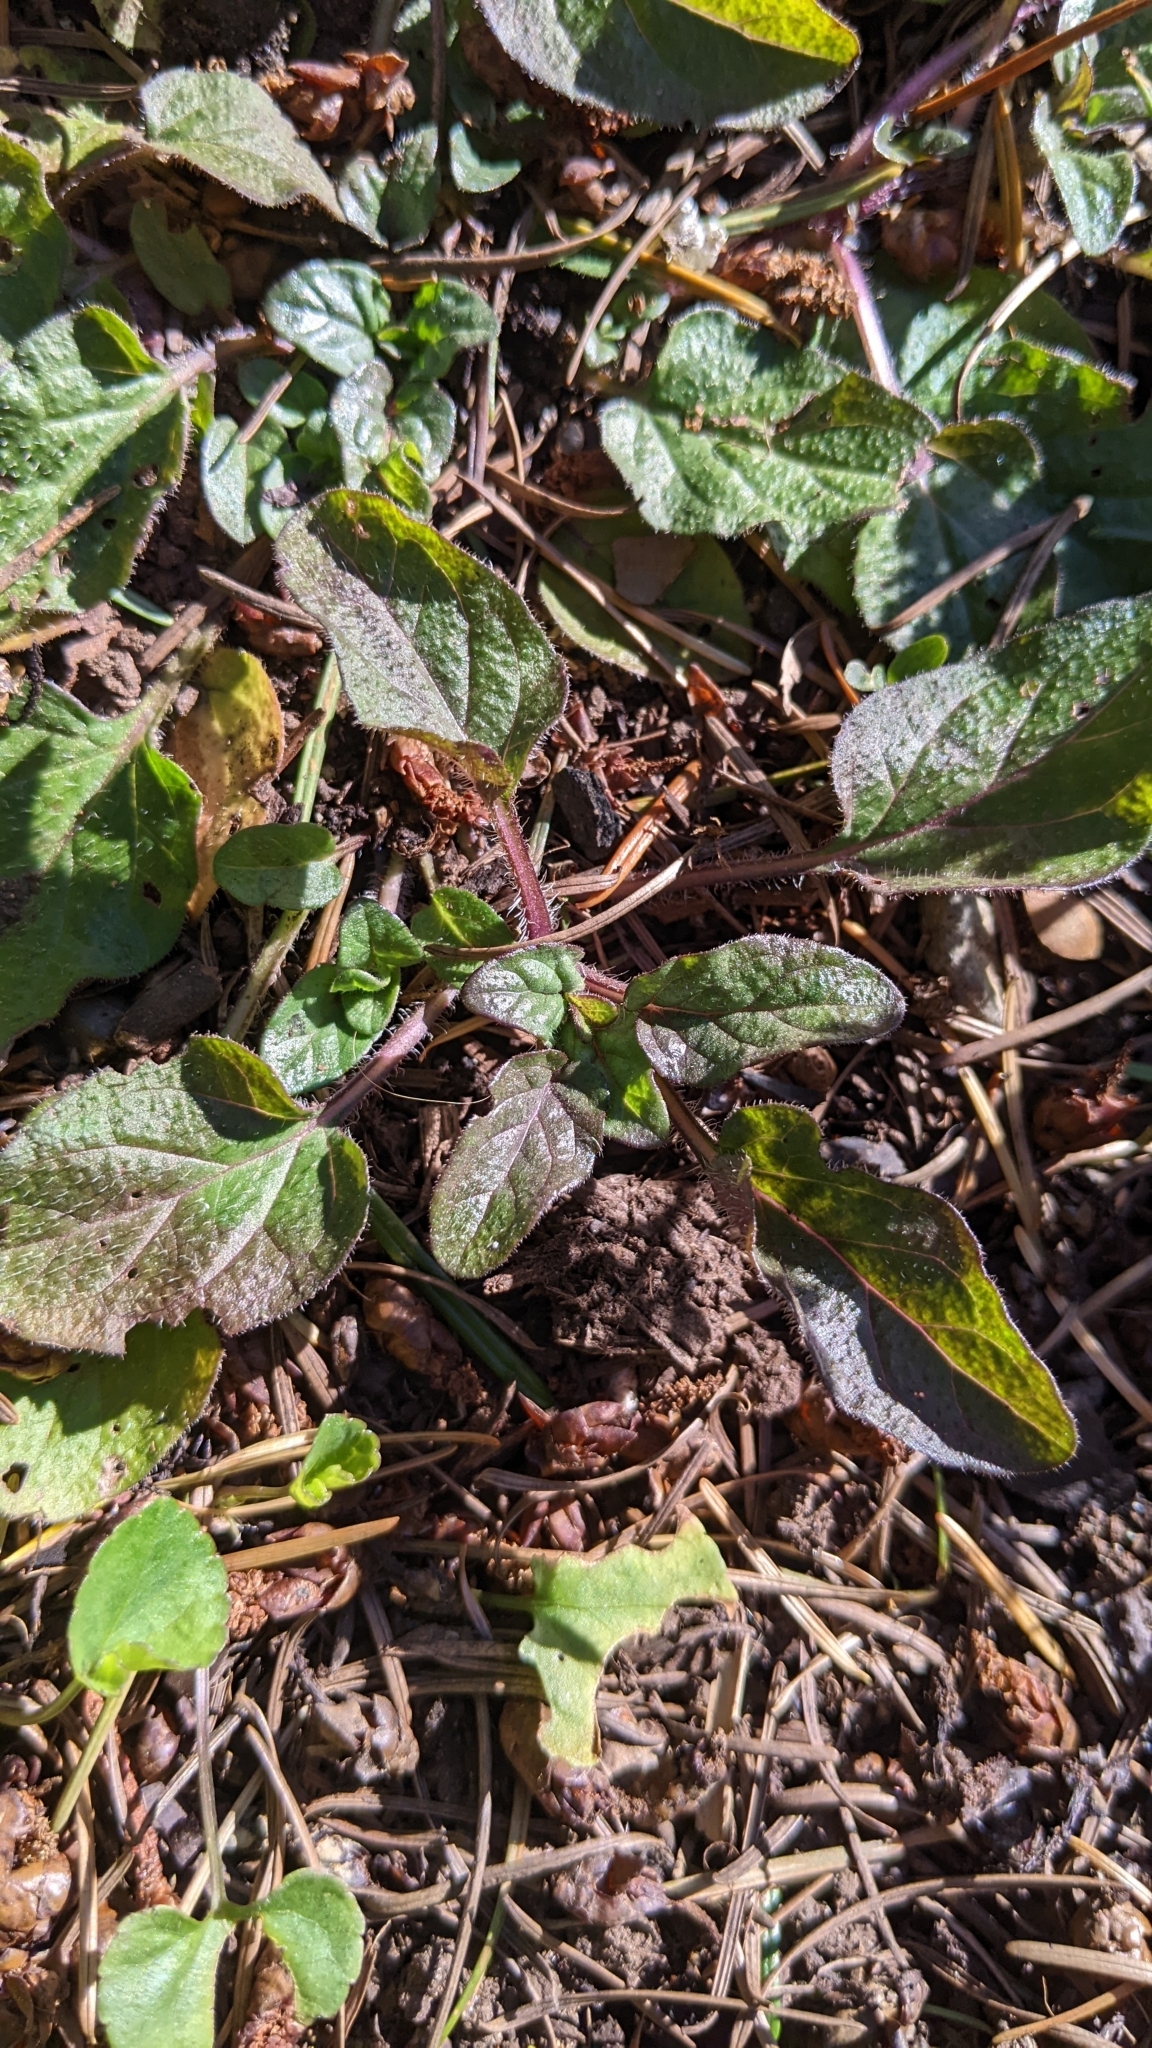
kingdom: Plantae
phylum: Tracheophyta
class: Magnoliopsida
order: Lamiales
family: Lamiaceae
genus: Prunella
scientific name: Prunella vulgaris
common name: Heal-all
